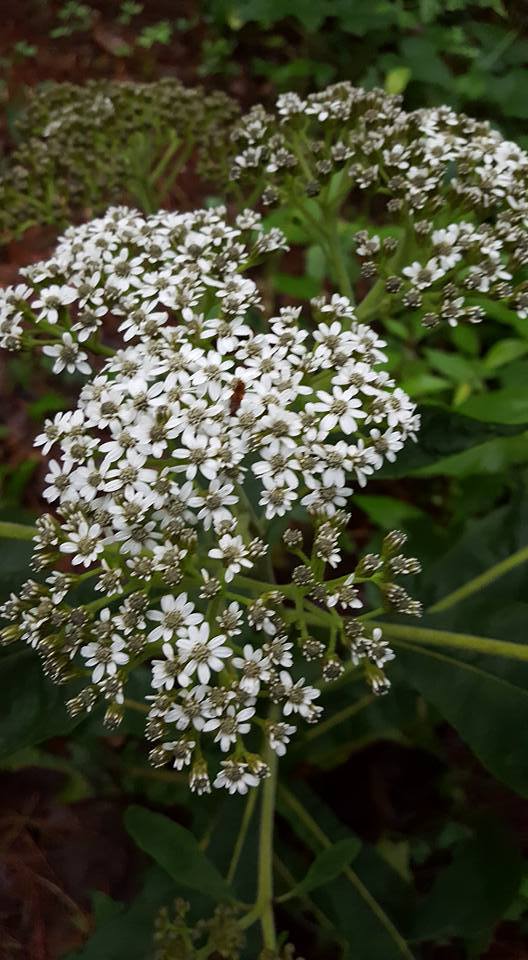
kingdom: Plantae
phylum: Tracheophyta
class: Magnoliopsida
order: Asterales
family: Asteraceae
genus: Verbesina
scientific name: Verbesina turbacensis
